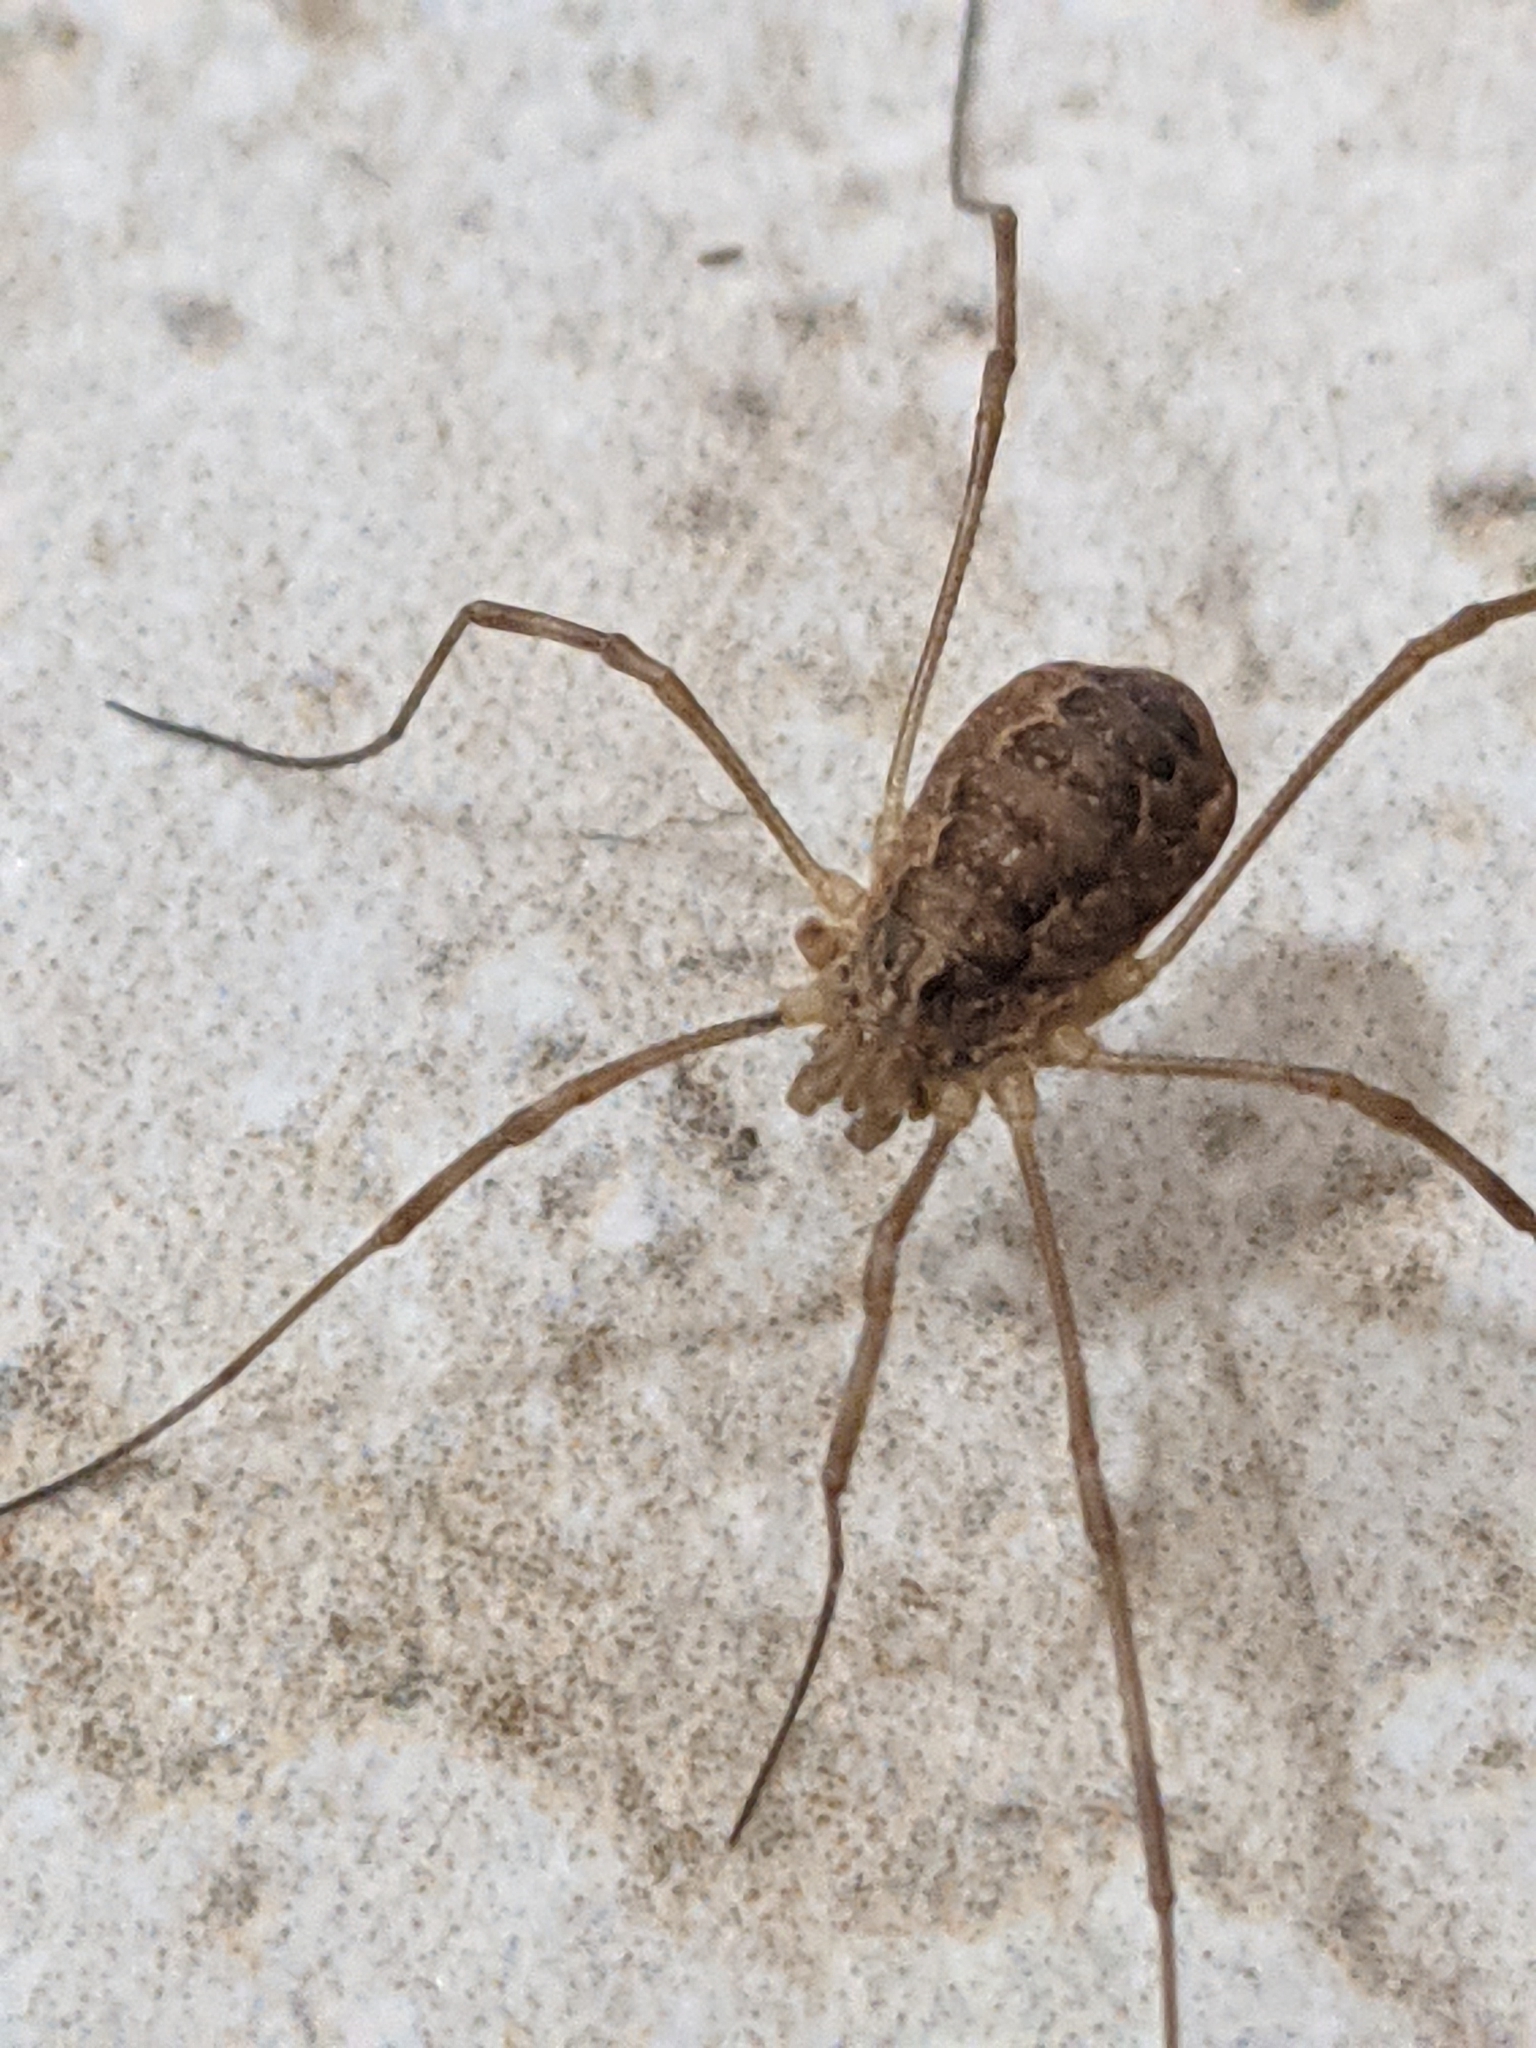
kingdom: Animalia
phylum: Arthropoda
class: Arachnida
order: Opiliones
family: Phalangiidae
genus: Rilaena
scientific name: Rilaena triangularis
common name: Spring harvestman
